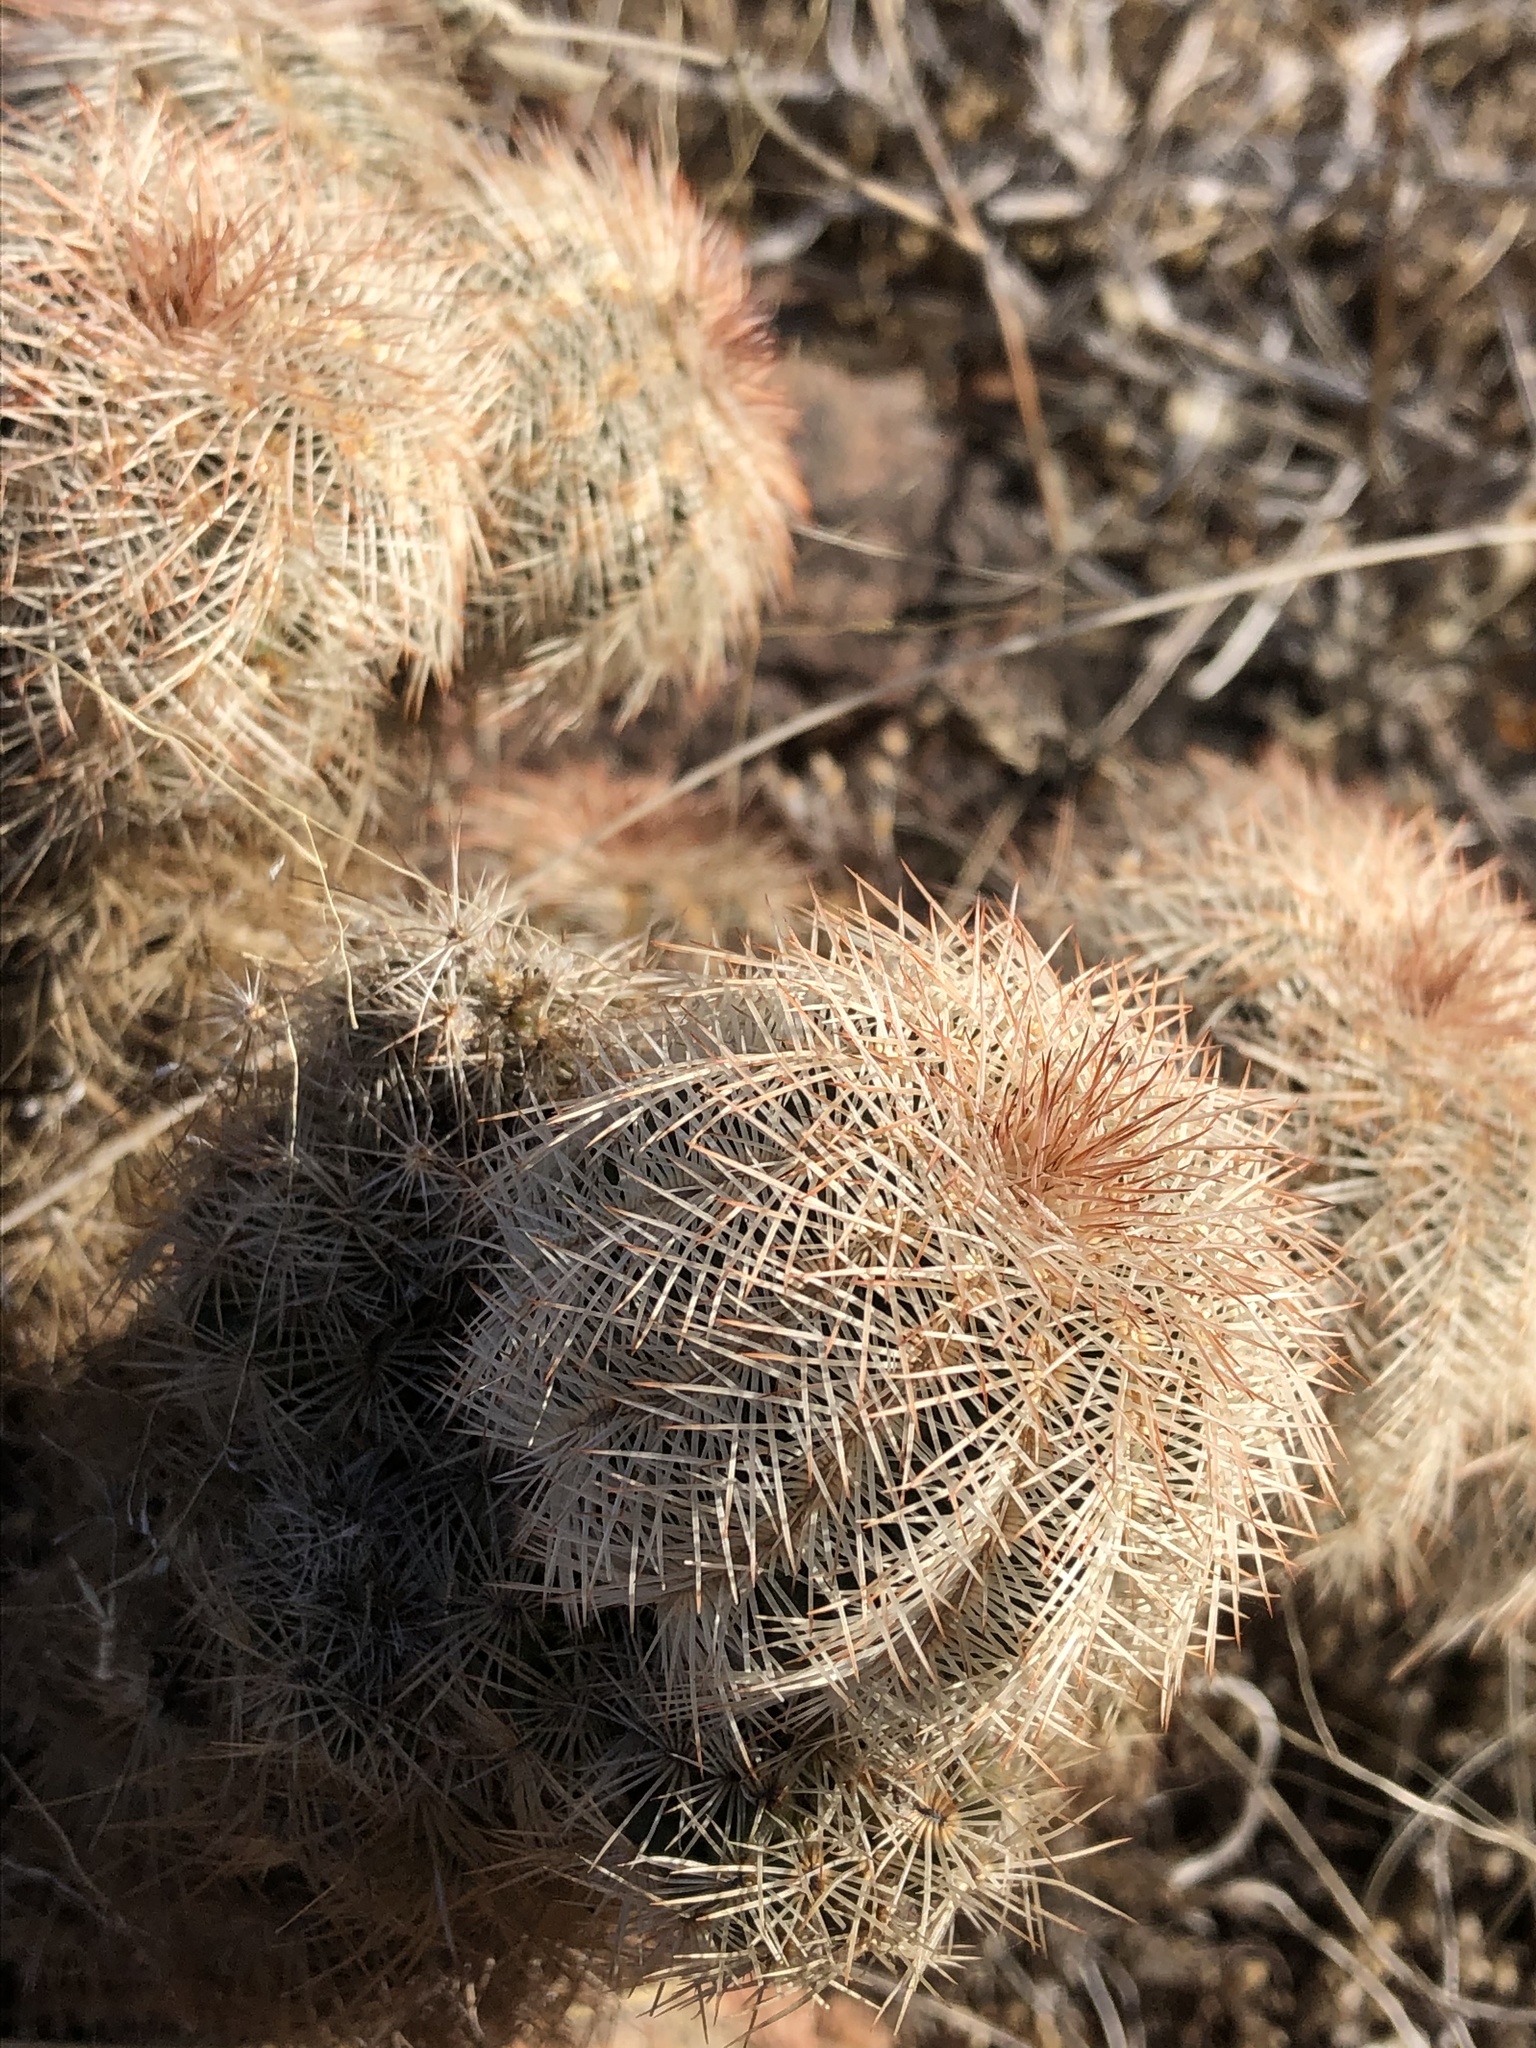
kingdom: Plantae
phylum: Tracheophyta
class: Magnoliopsida
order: Caryophyllales
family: Cactaceae
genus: Echinocereus
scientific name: Echinocereus reichenbachii
